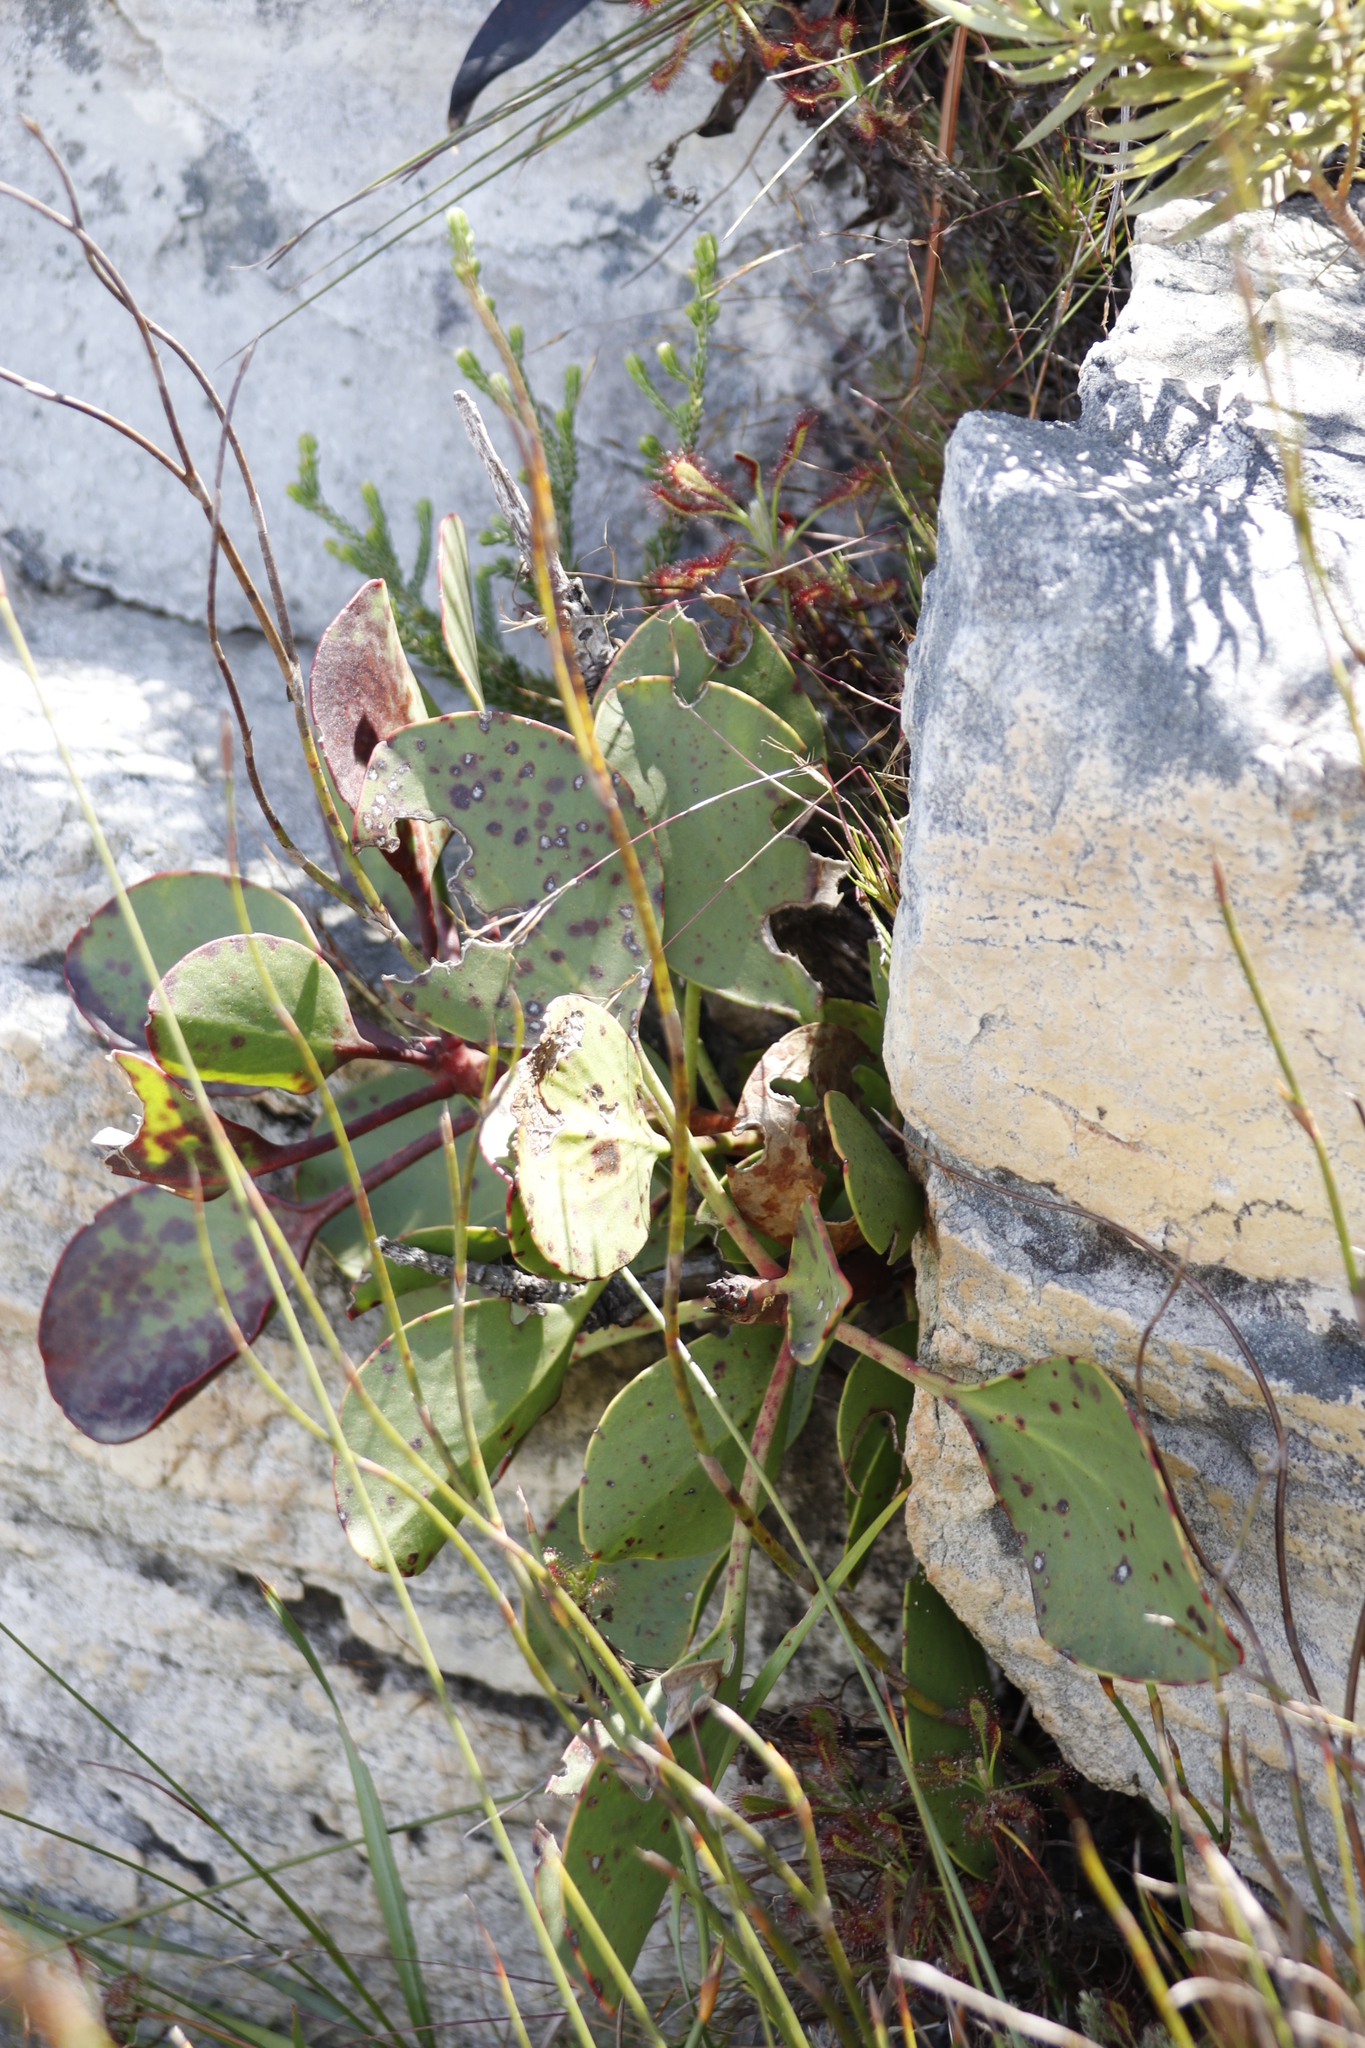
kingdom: Plantae
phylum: Tracheophyta
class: Magnoliopsida
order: Proteales
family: Proteaceae
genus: Protea
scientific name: Protea cynaroides
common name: King protea
